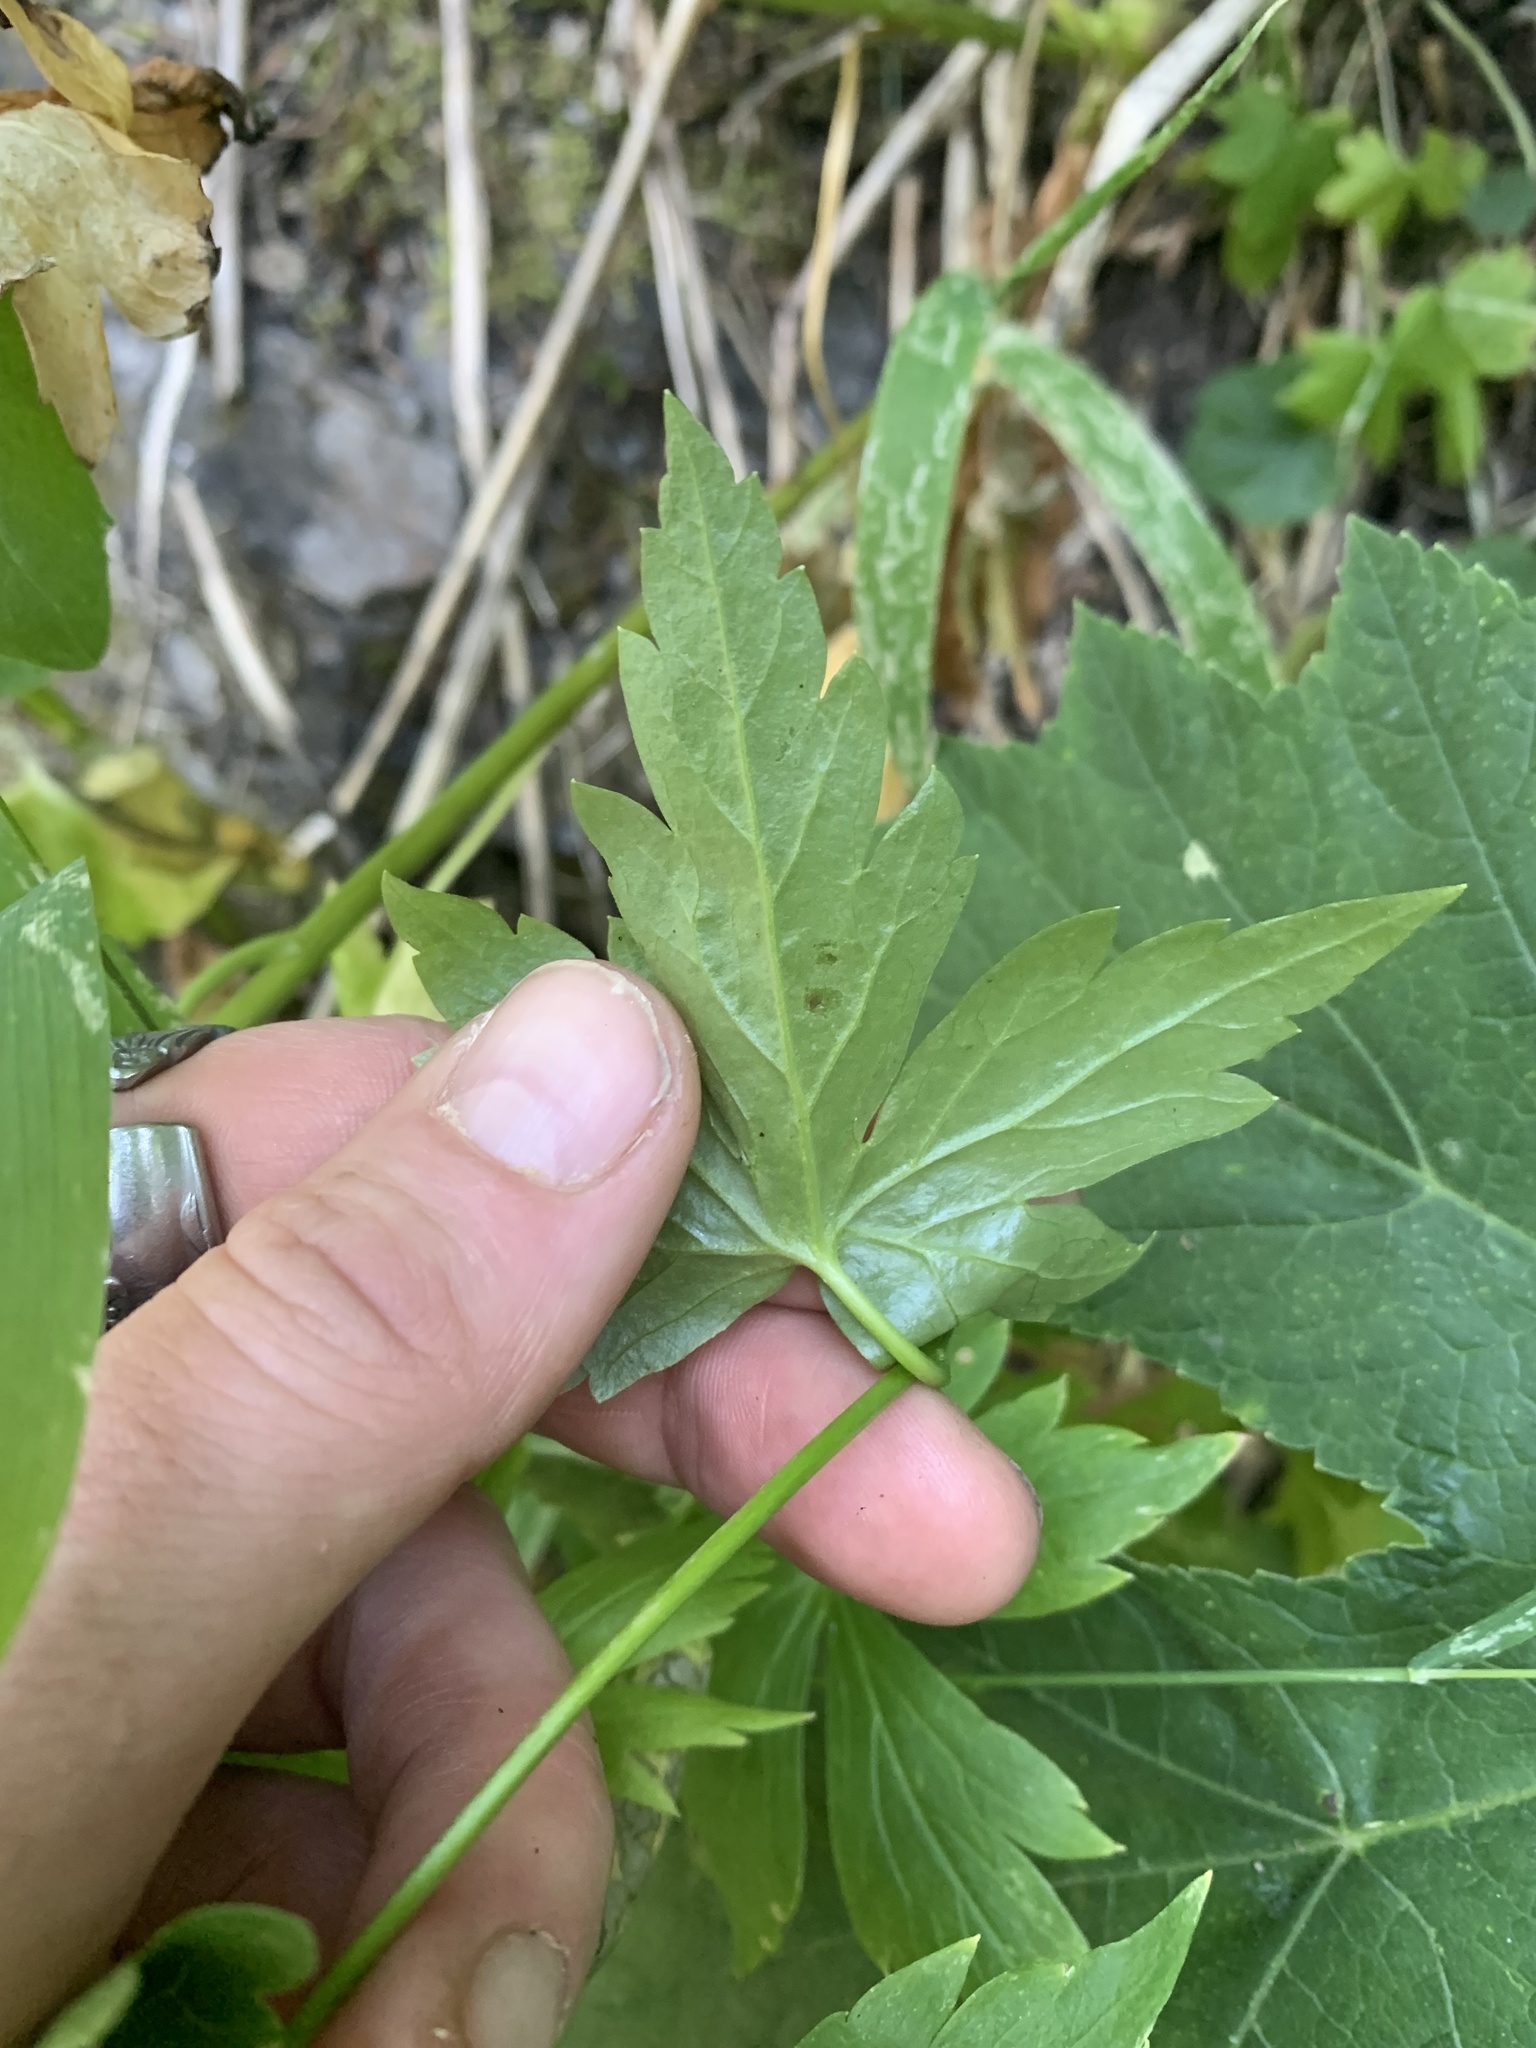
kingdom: Plantae
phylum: Tracheophyta
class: Magnoliopsida
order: Ranunculales
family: Ranunculaceae
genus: Aconitum
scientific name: Aconitum columbianum
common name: Columbia aconite
